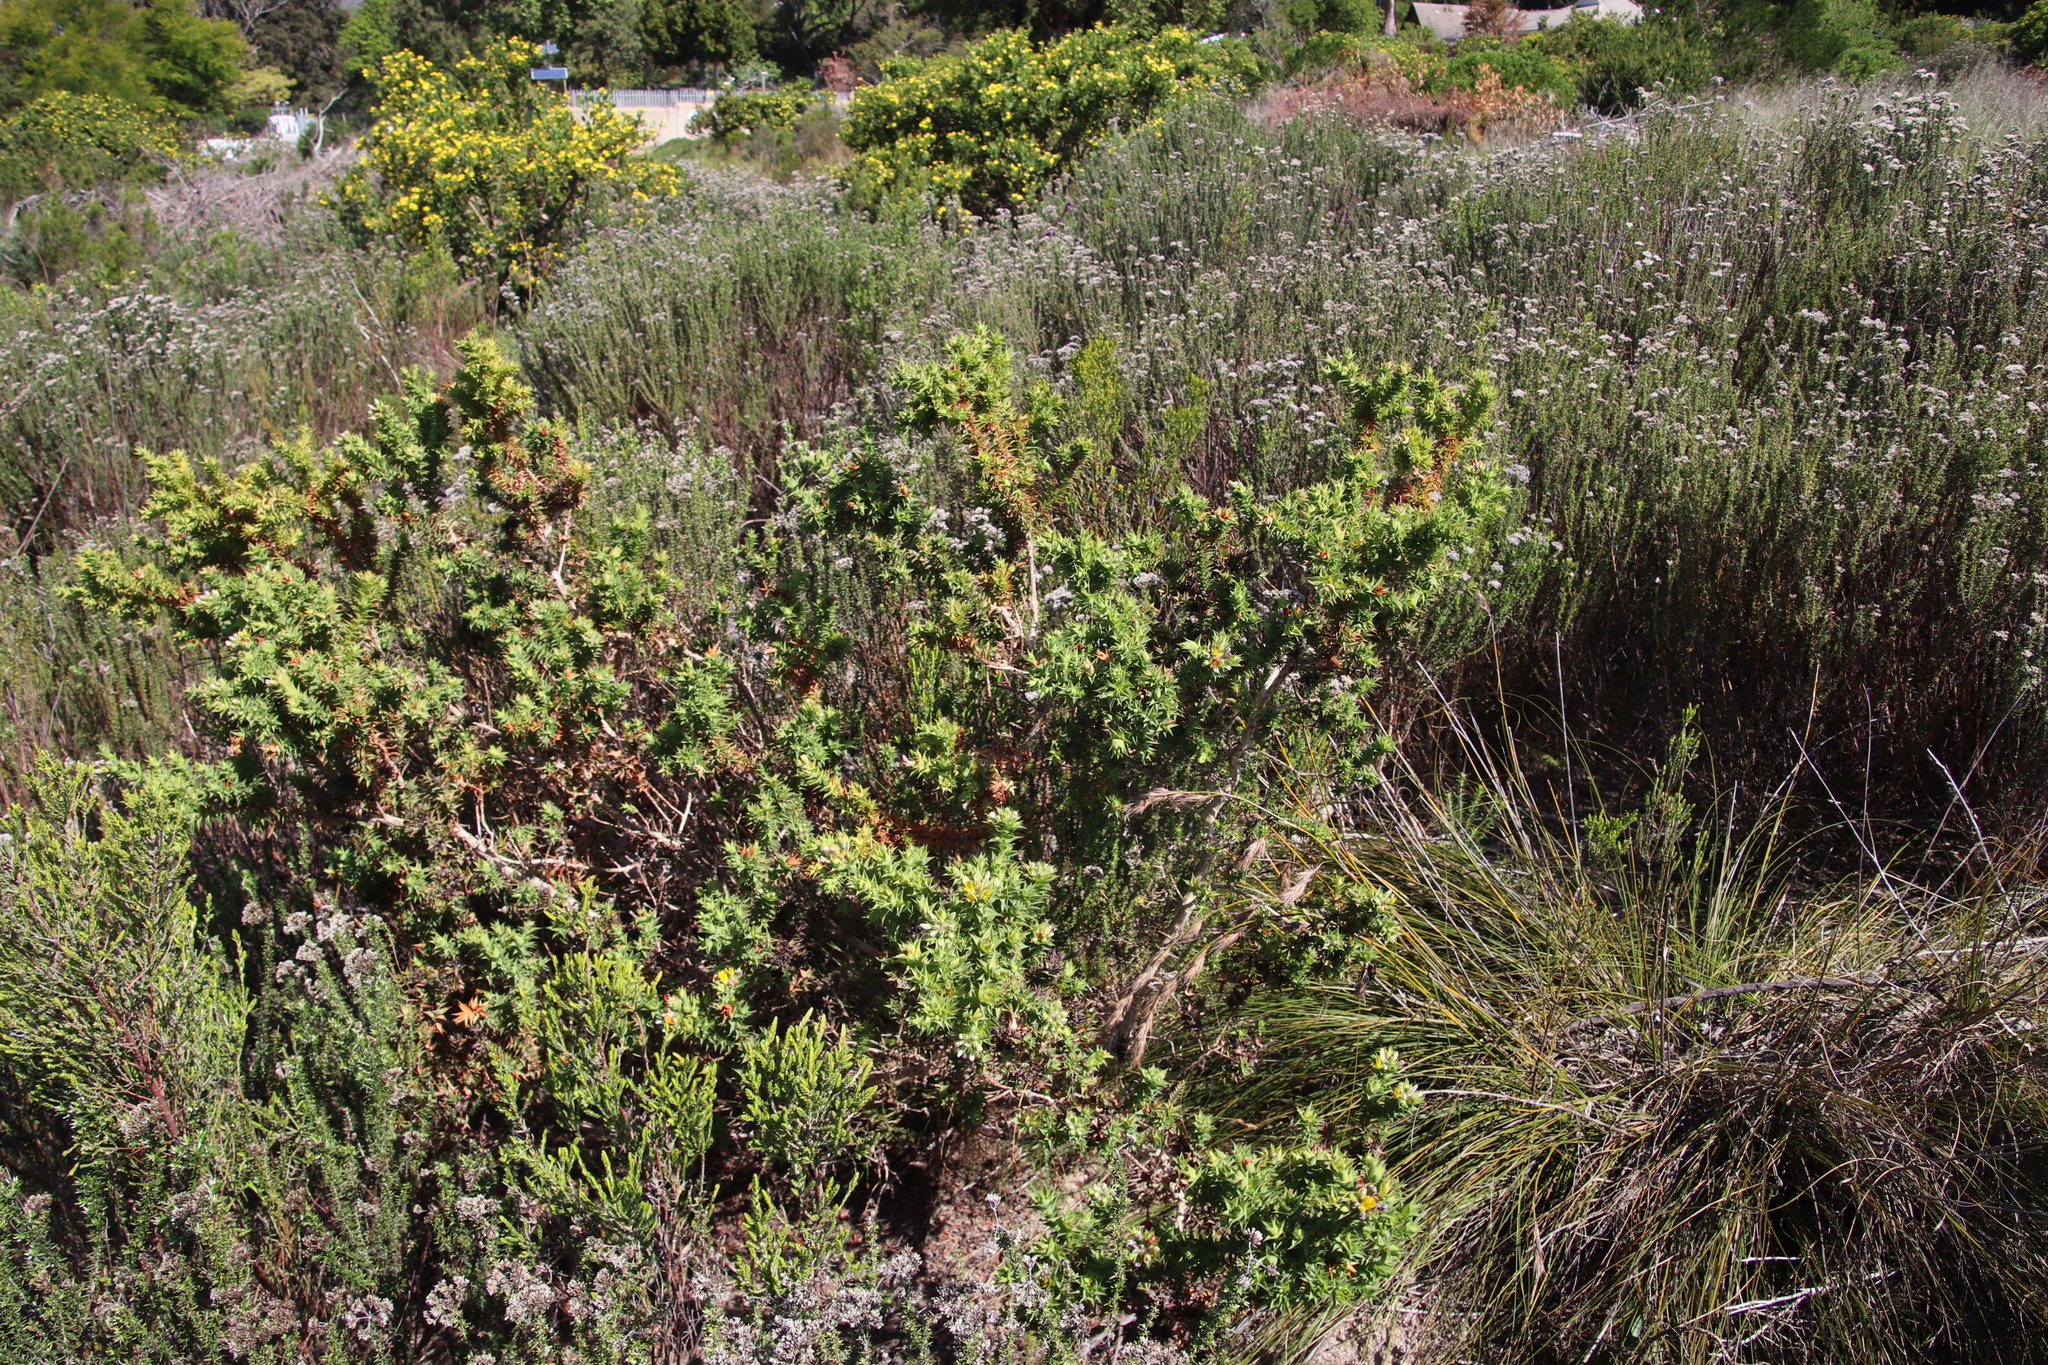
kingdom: Plantae
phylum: Tracheophyta
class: Magnoliopsida
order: Fabales
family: Fabaceae
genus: Aspalathus
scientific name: Aspalathus cordata
